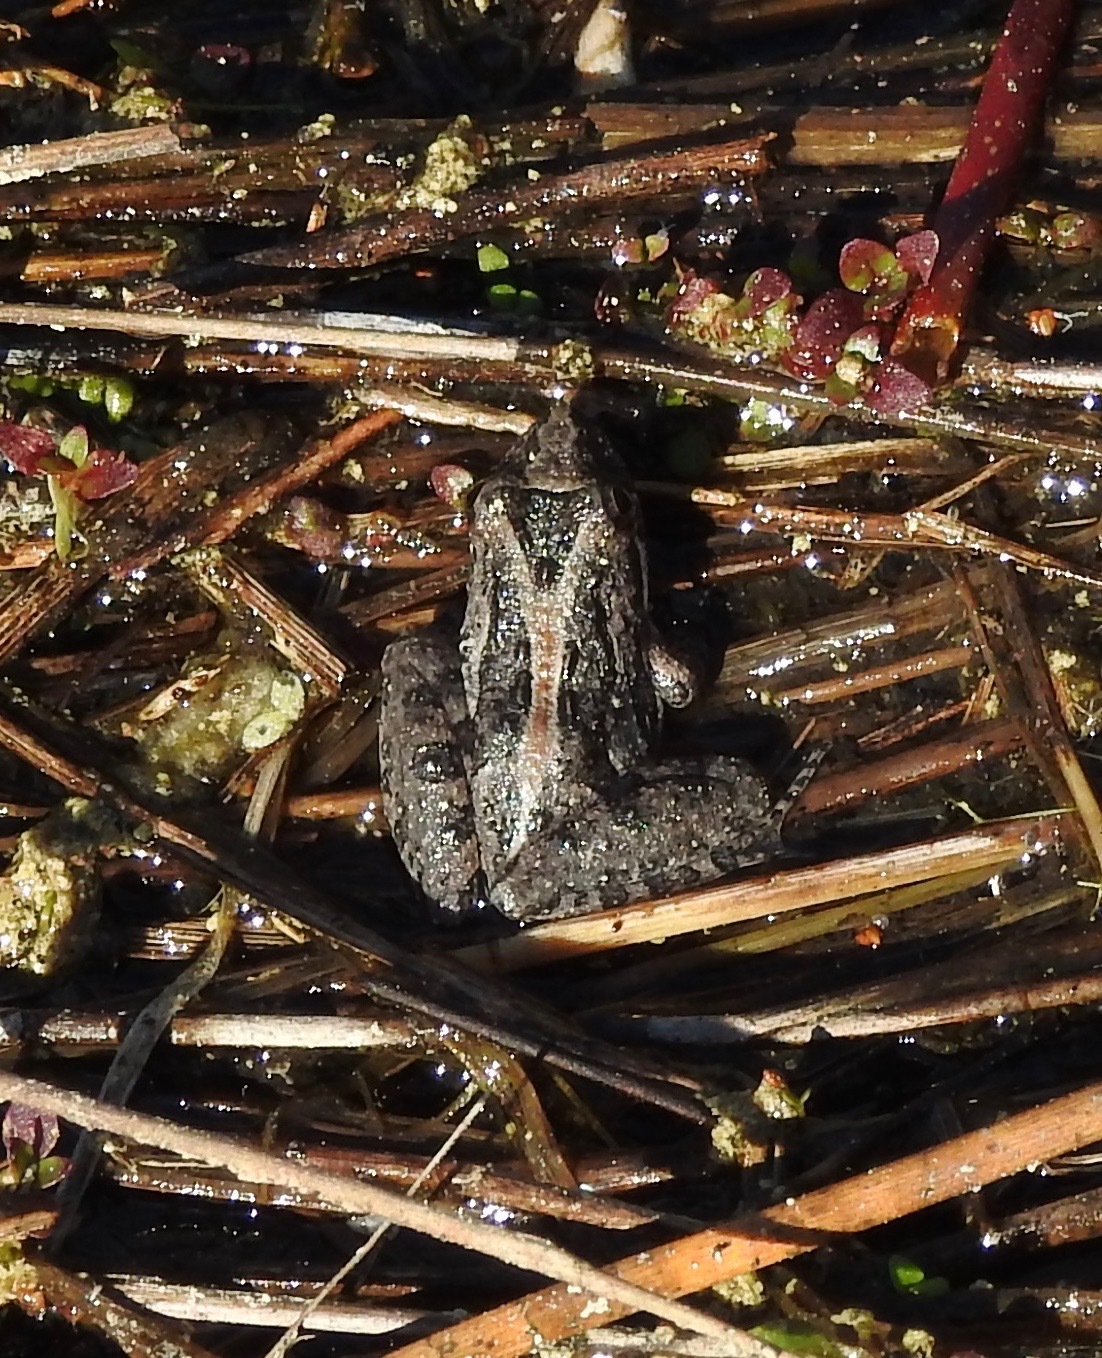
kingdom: Animalia
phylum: Chordata
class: Amphibia
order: Anura
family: Hylidae
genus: Acris
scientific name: Acris gryllus
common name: Southern cricket frog
